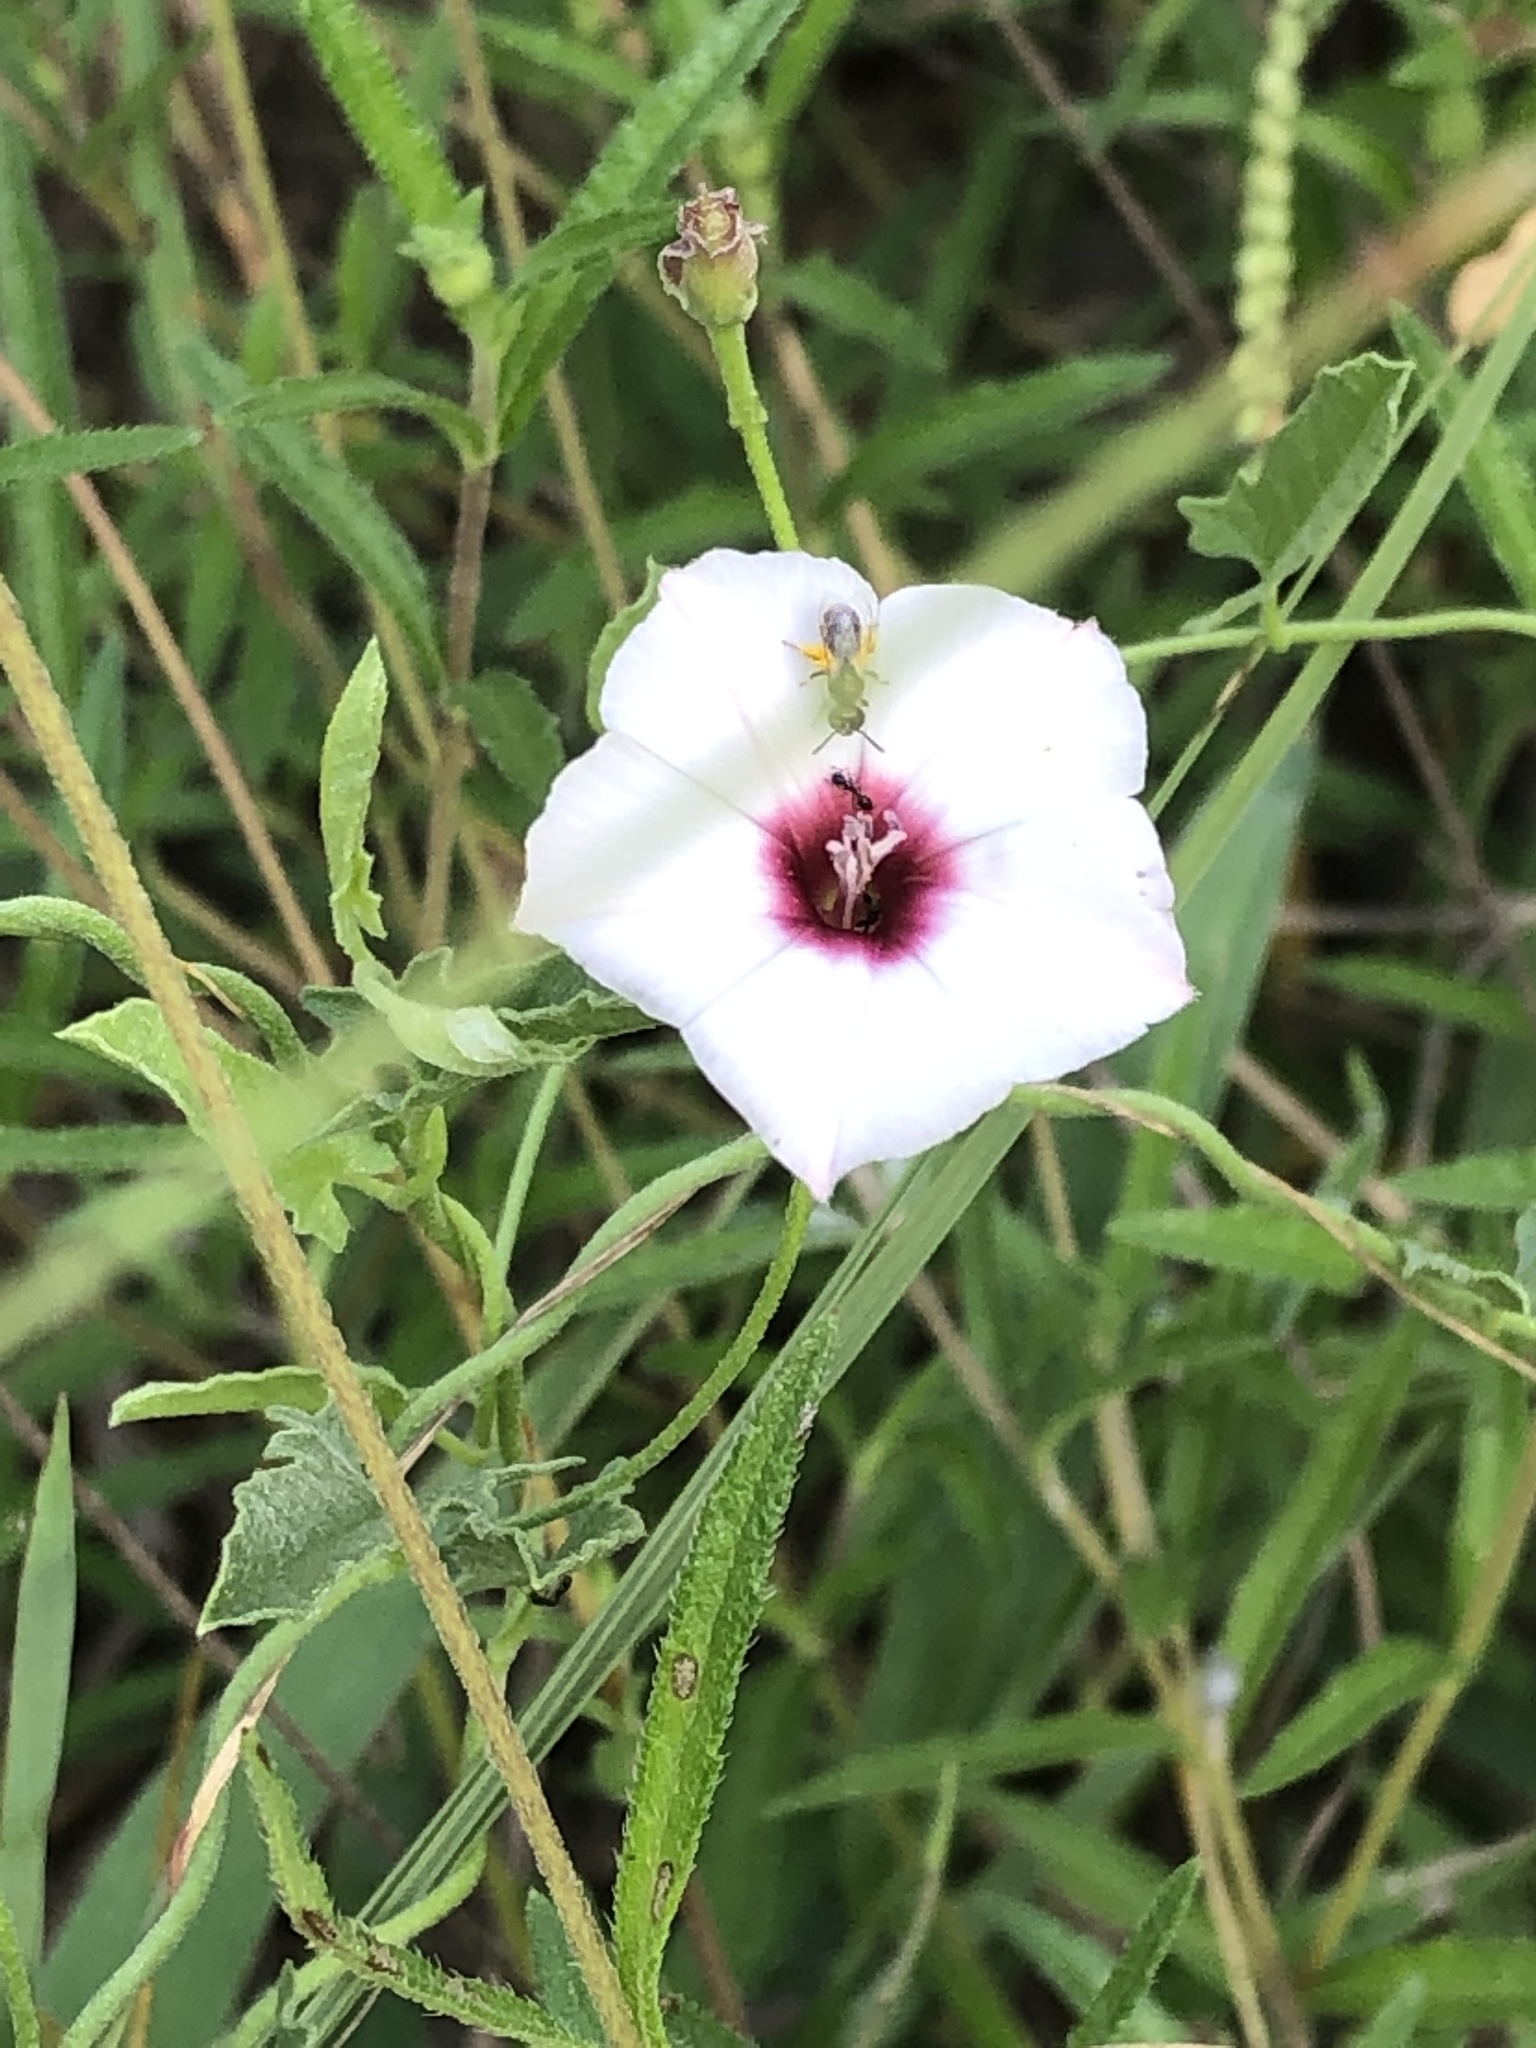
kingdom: Plantae
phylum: Tracheophyta
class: Magnoliopsida
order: Solanales
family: Convolvulaceae
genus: Convolvulus
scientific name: Convolvulus equitans
